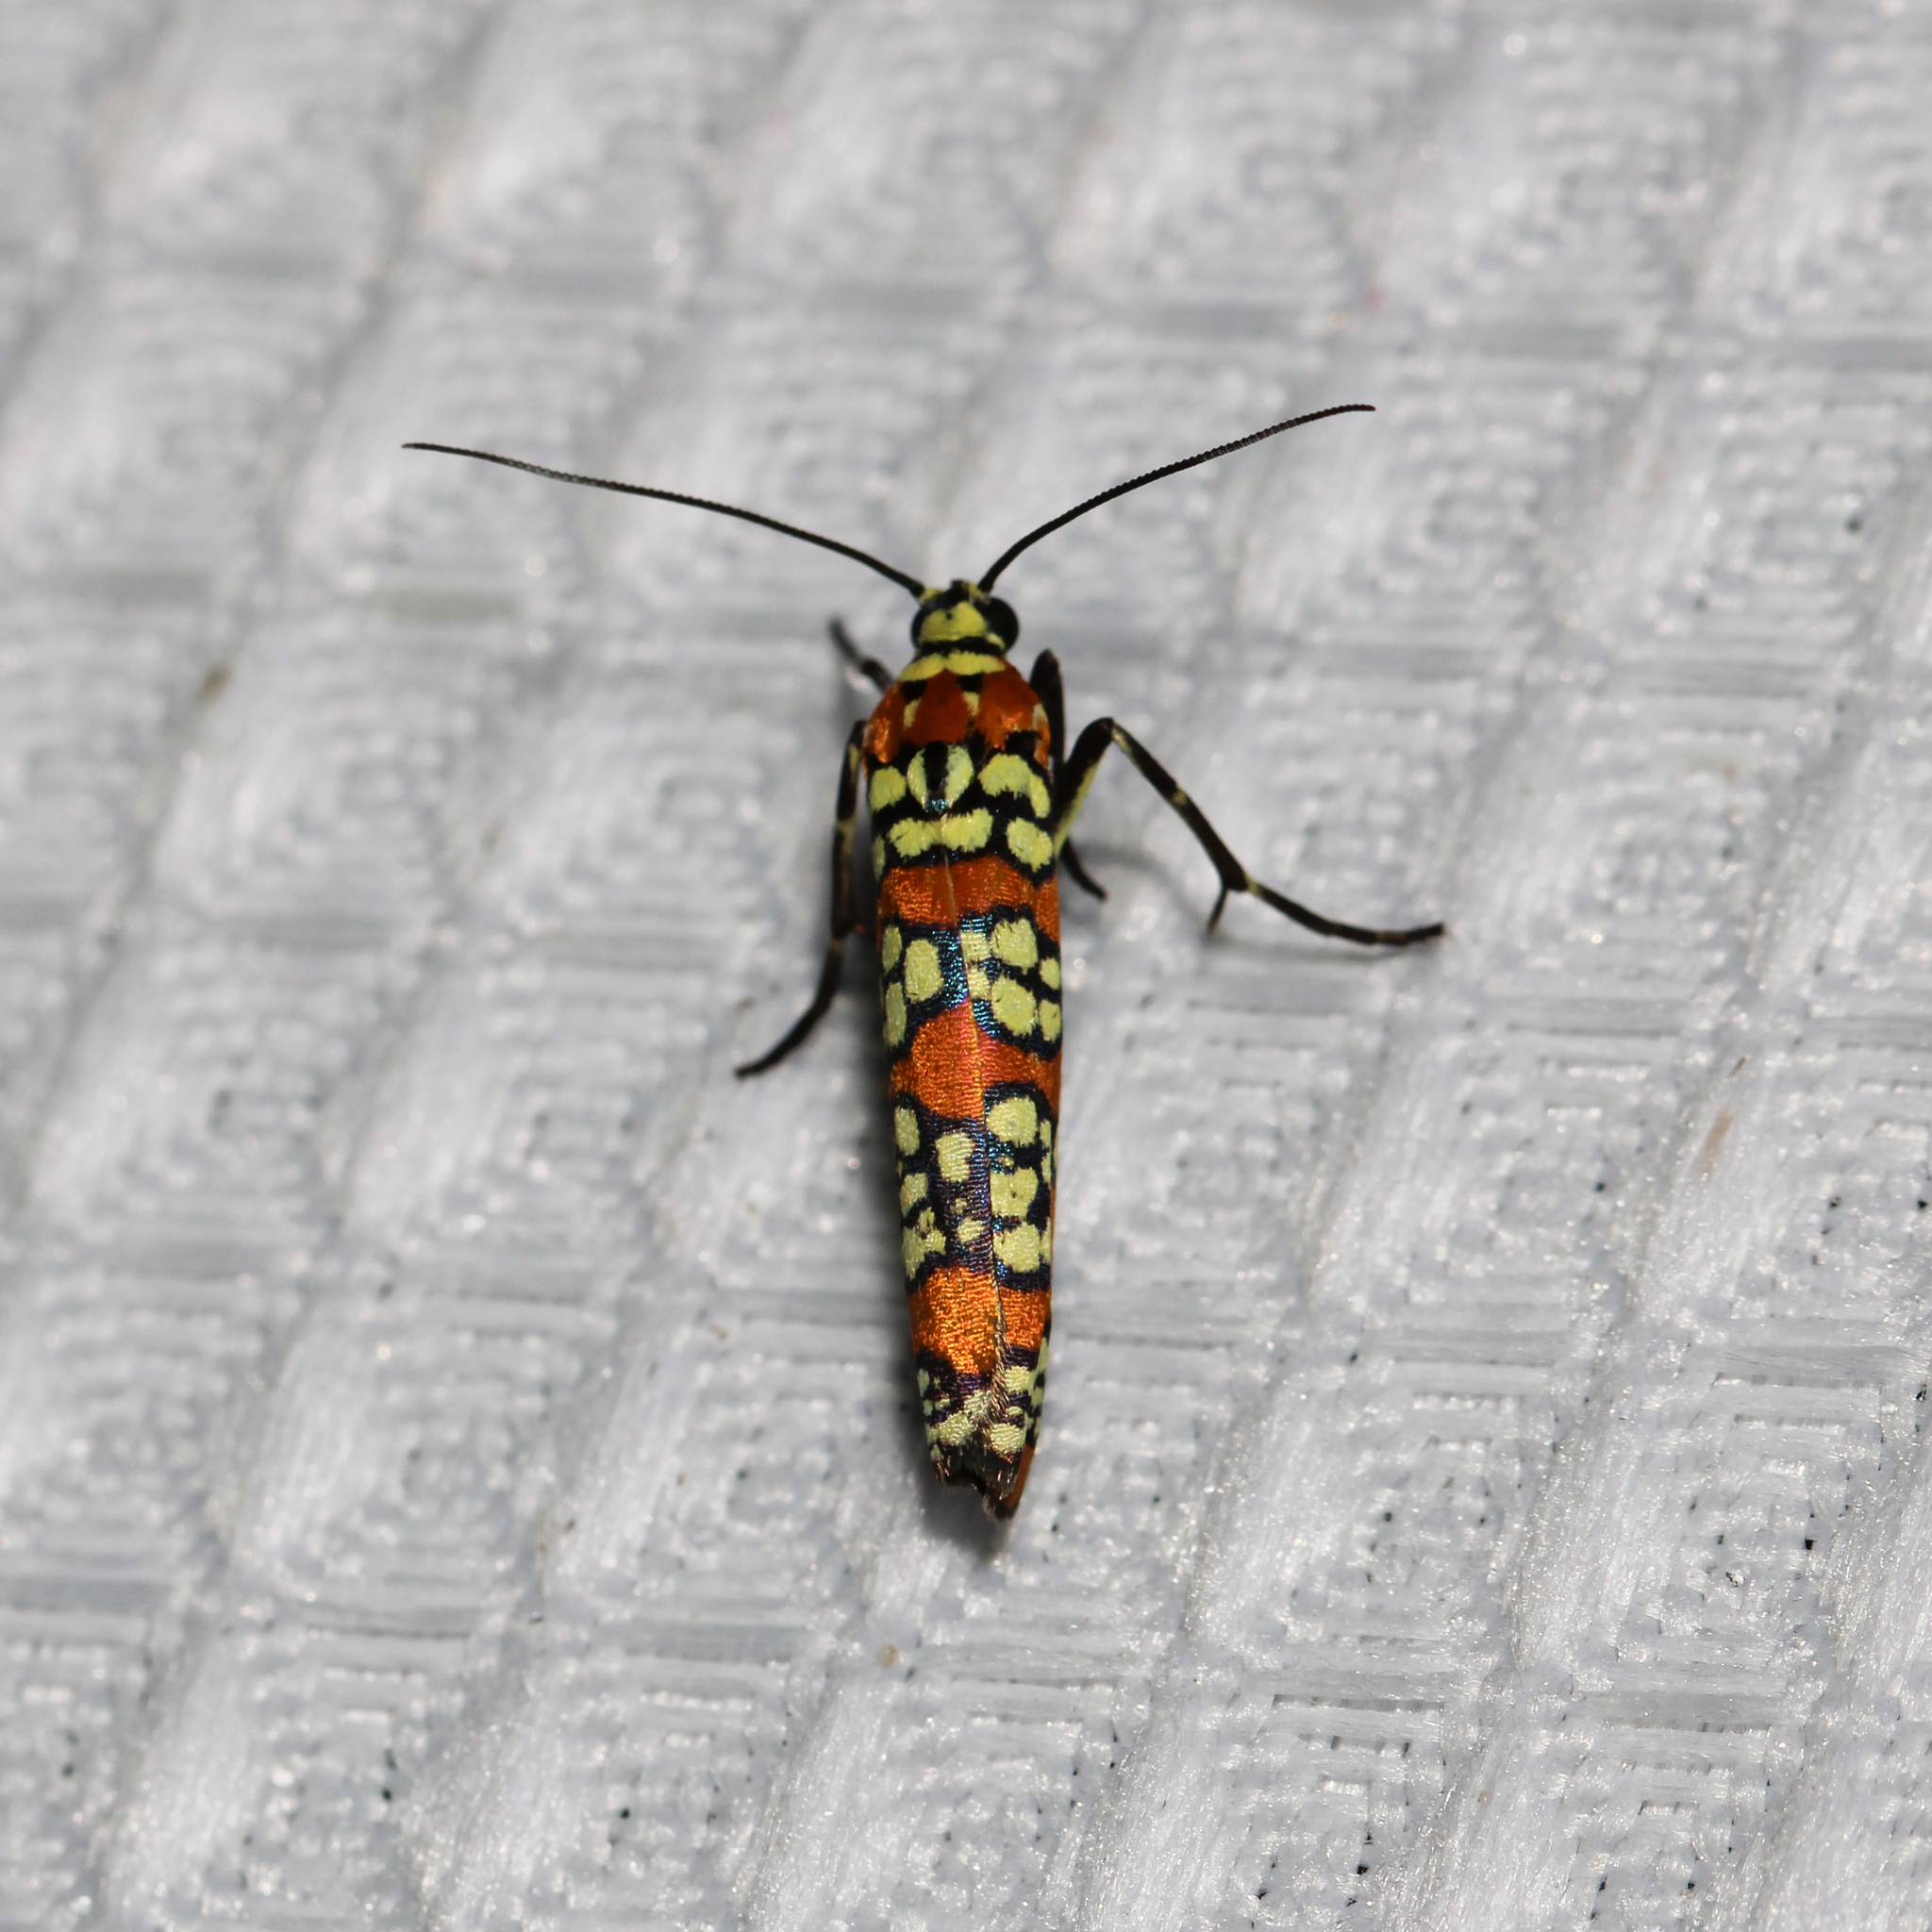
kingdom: Animalia
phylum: Arthropoda
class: Insecta
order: Lepidoptera
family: Attevidae
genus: Atteva
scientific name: Atteva punctella
